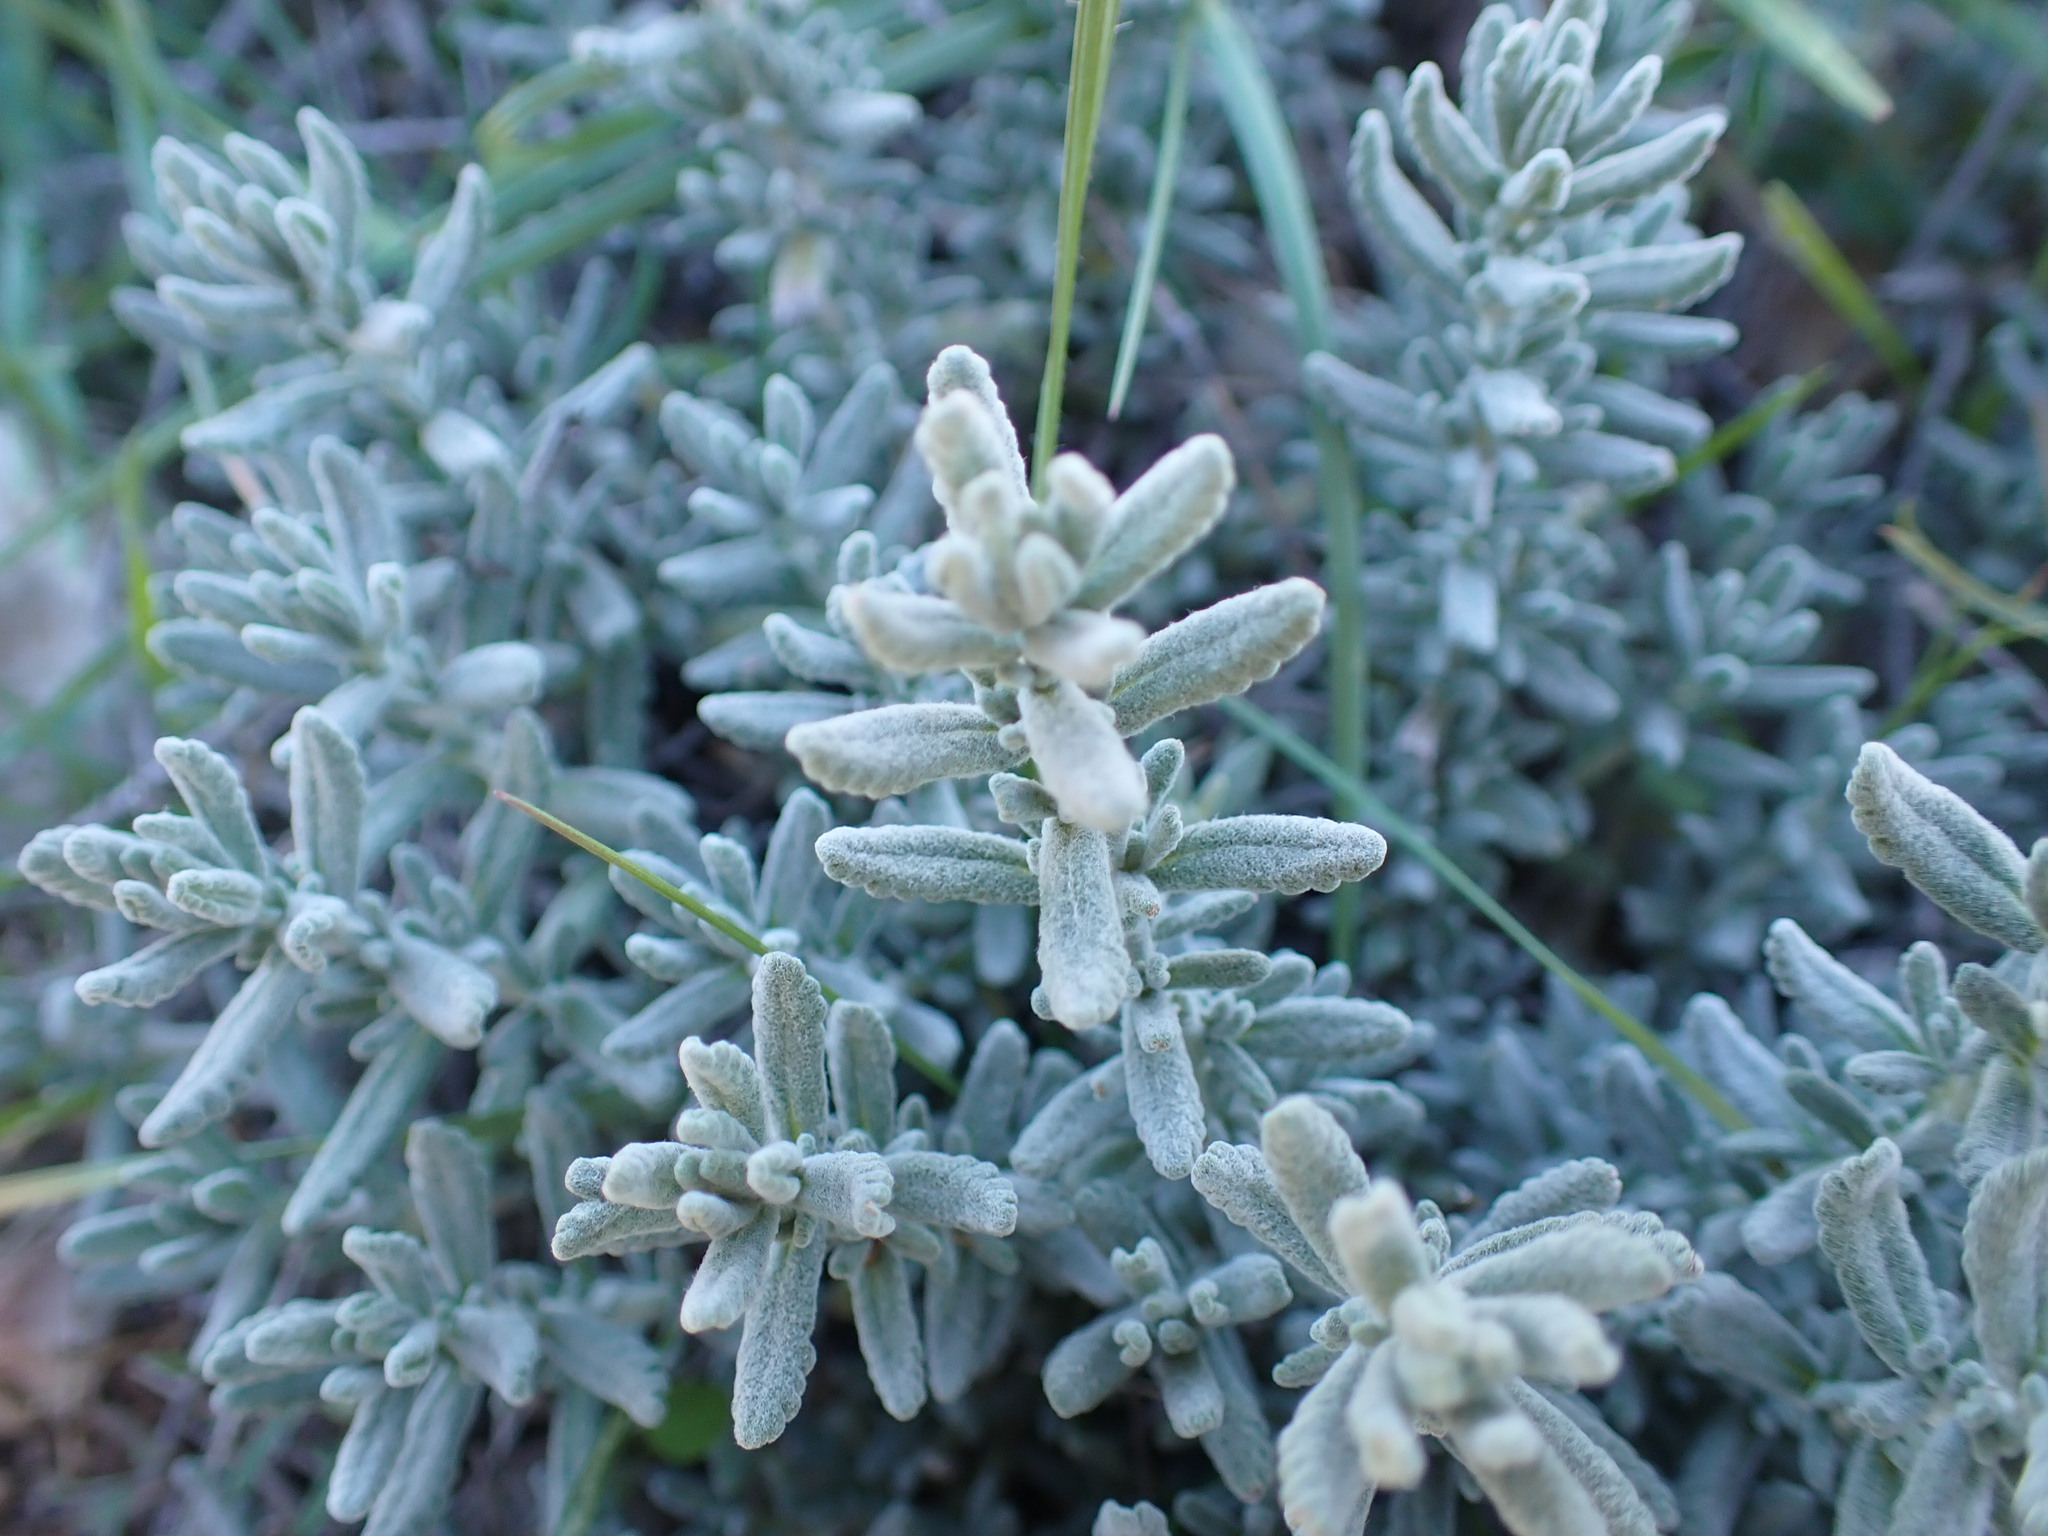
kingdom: Plantae
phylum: Tracheophyta
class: Magnoliopsida
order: Lamiales
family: Lamiaceae
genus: Teucrium
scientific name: Teucrium polium
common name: Poley
